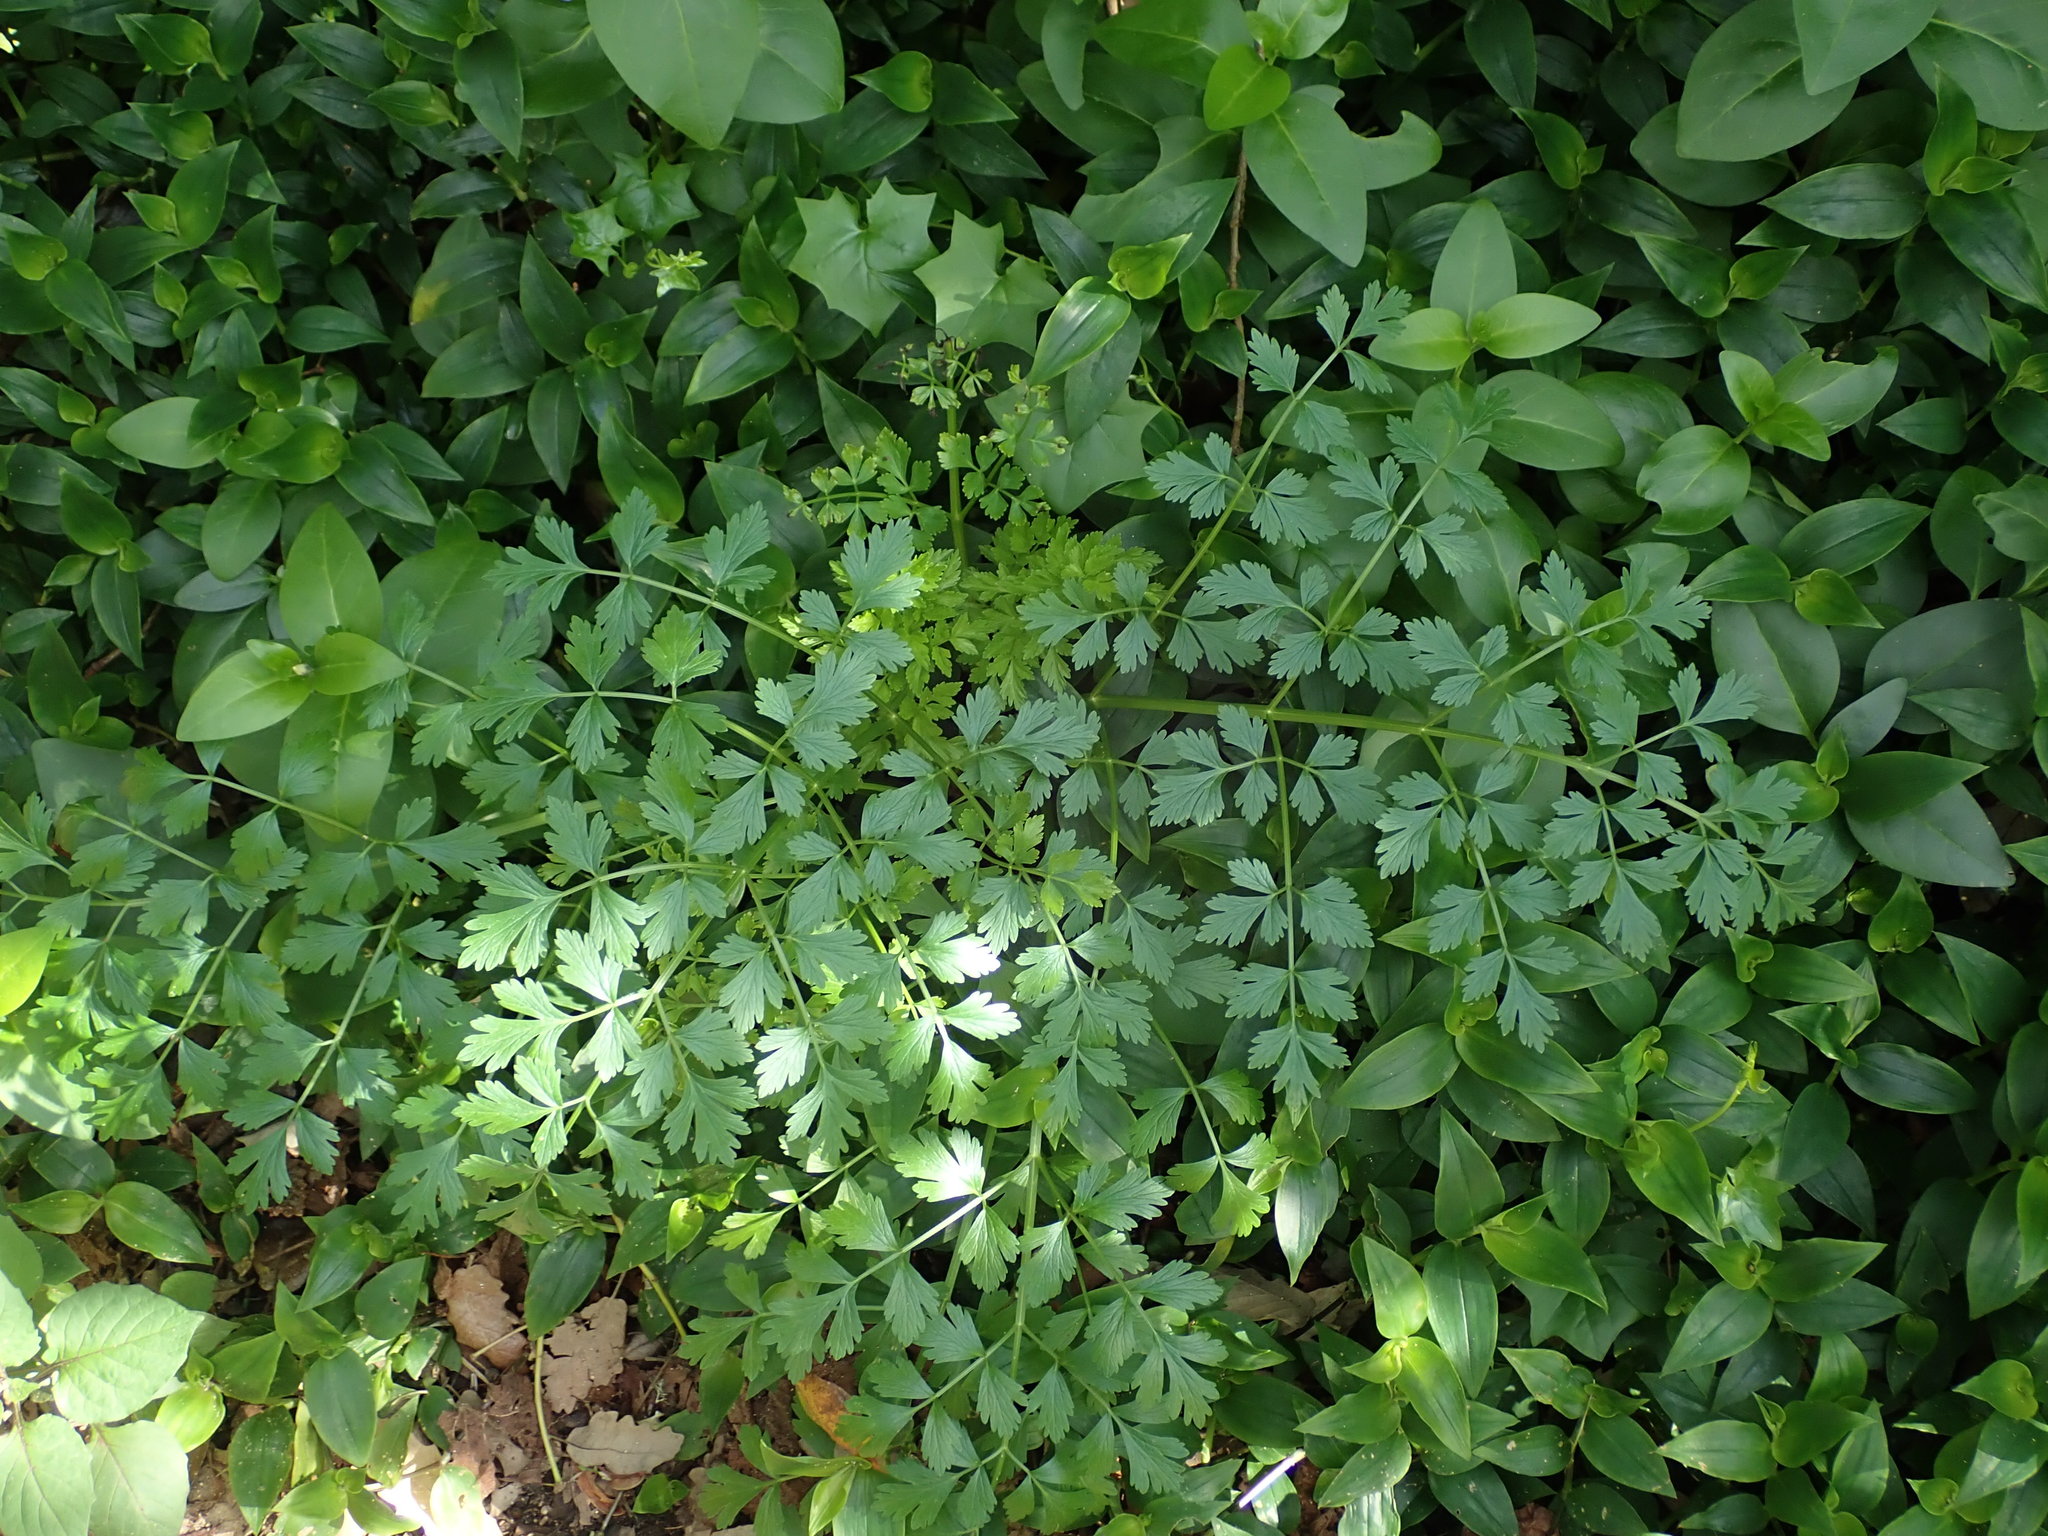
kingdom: Plantae
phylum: Tracheophyta
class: Magnoliopsida
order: Apiales
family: Apiaceae
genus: Oenanthe
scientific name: Oenanthe crocata
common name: Hemlock water-dropwort
